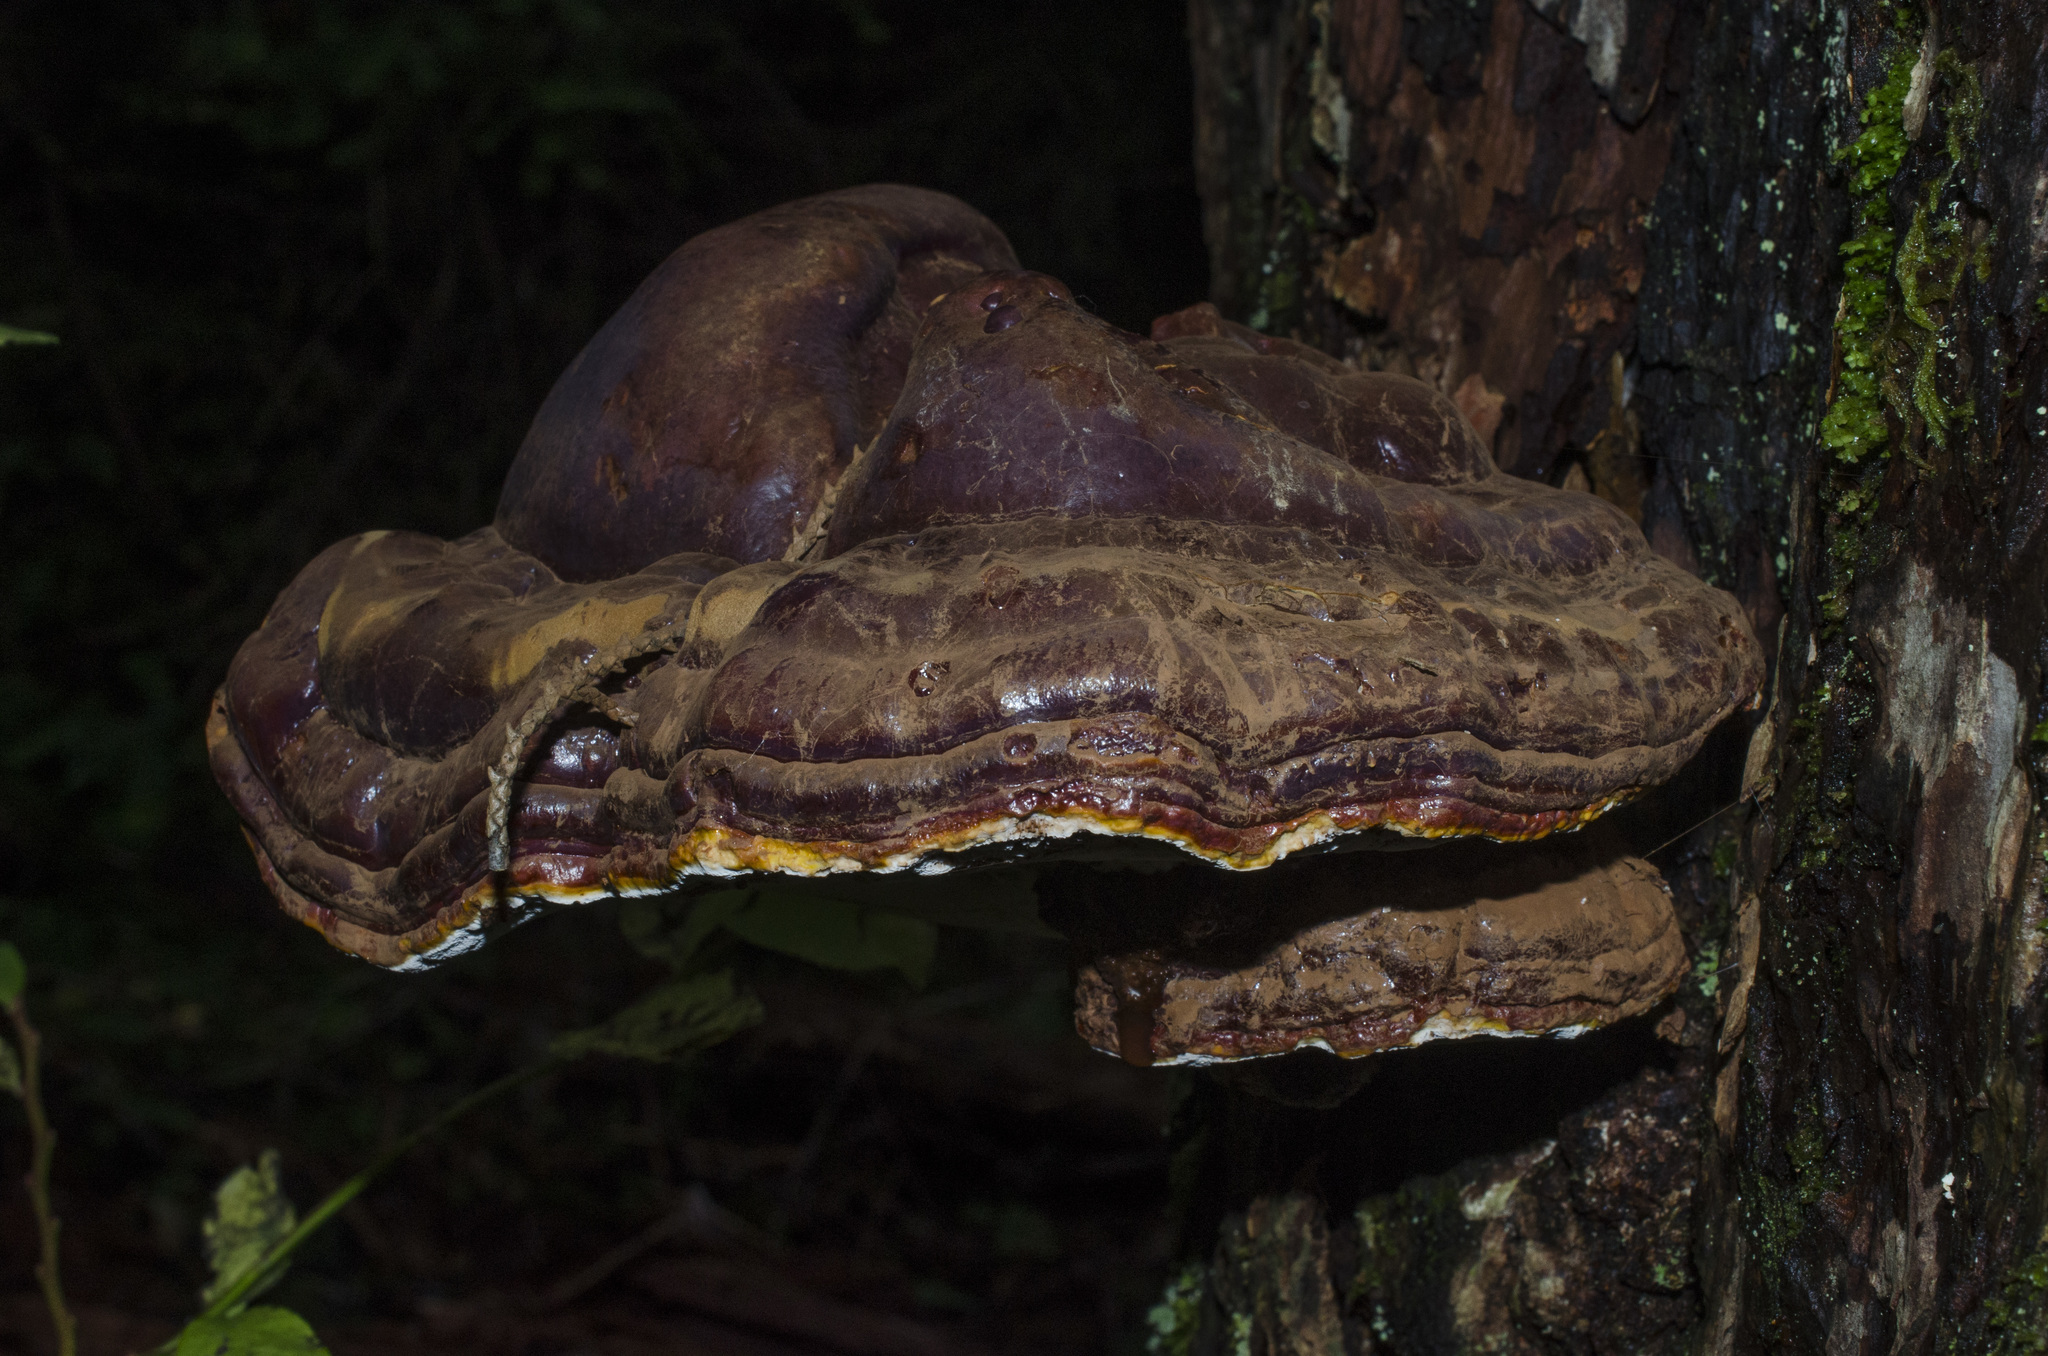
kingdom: Fungi
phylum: Basidiomycota
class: Agaricomycetes
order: Polyporales
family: Polyporaceae
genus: Ganoderma
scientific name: Ganoderma oregonense
